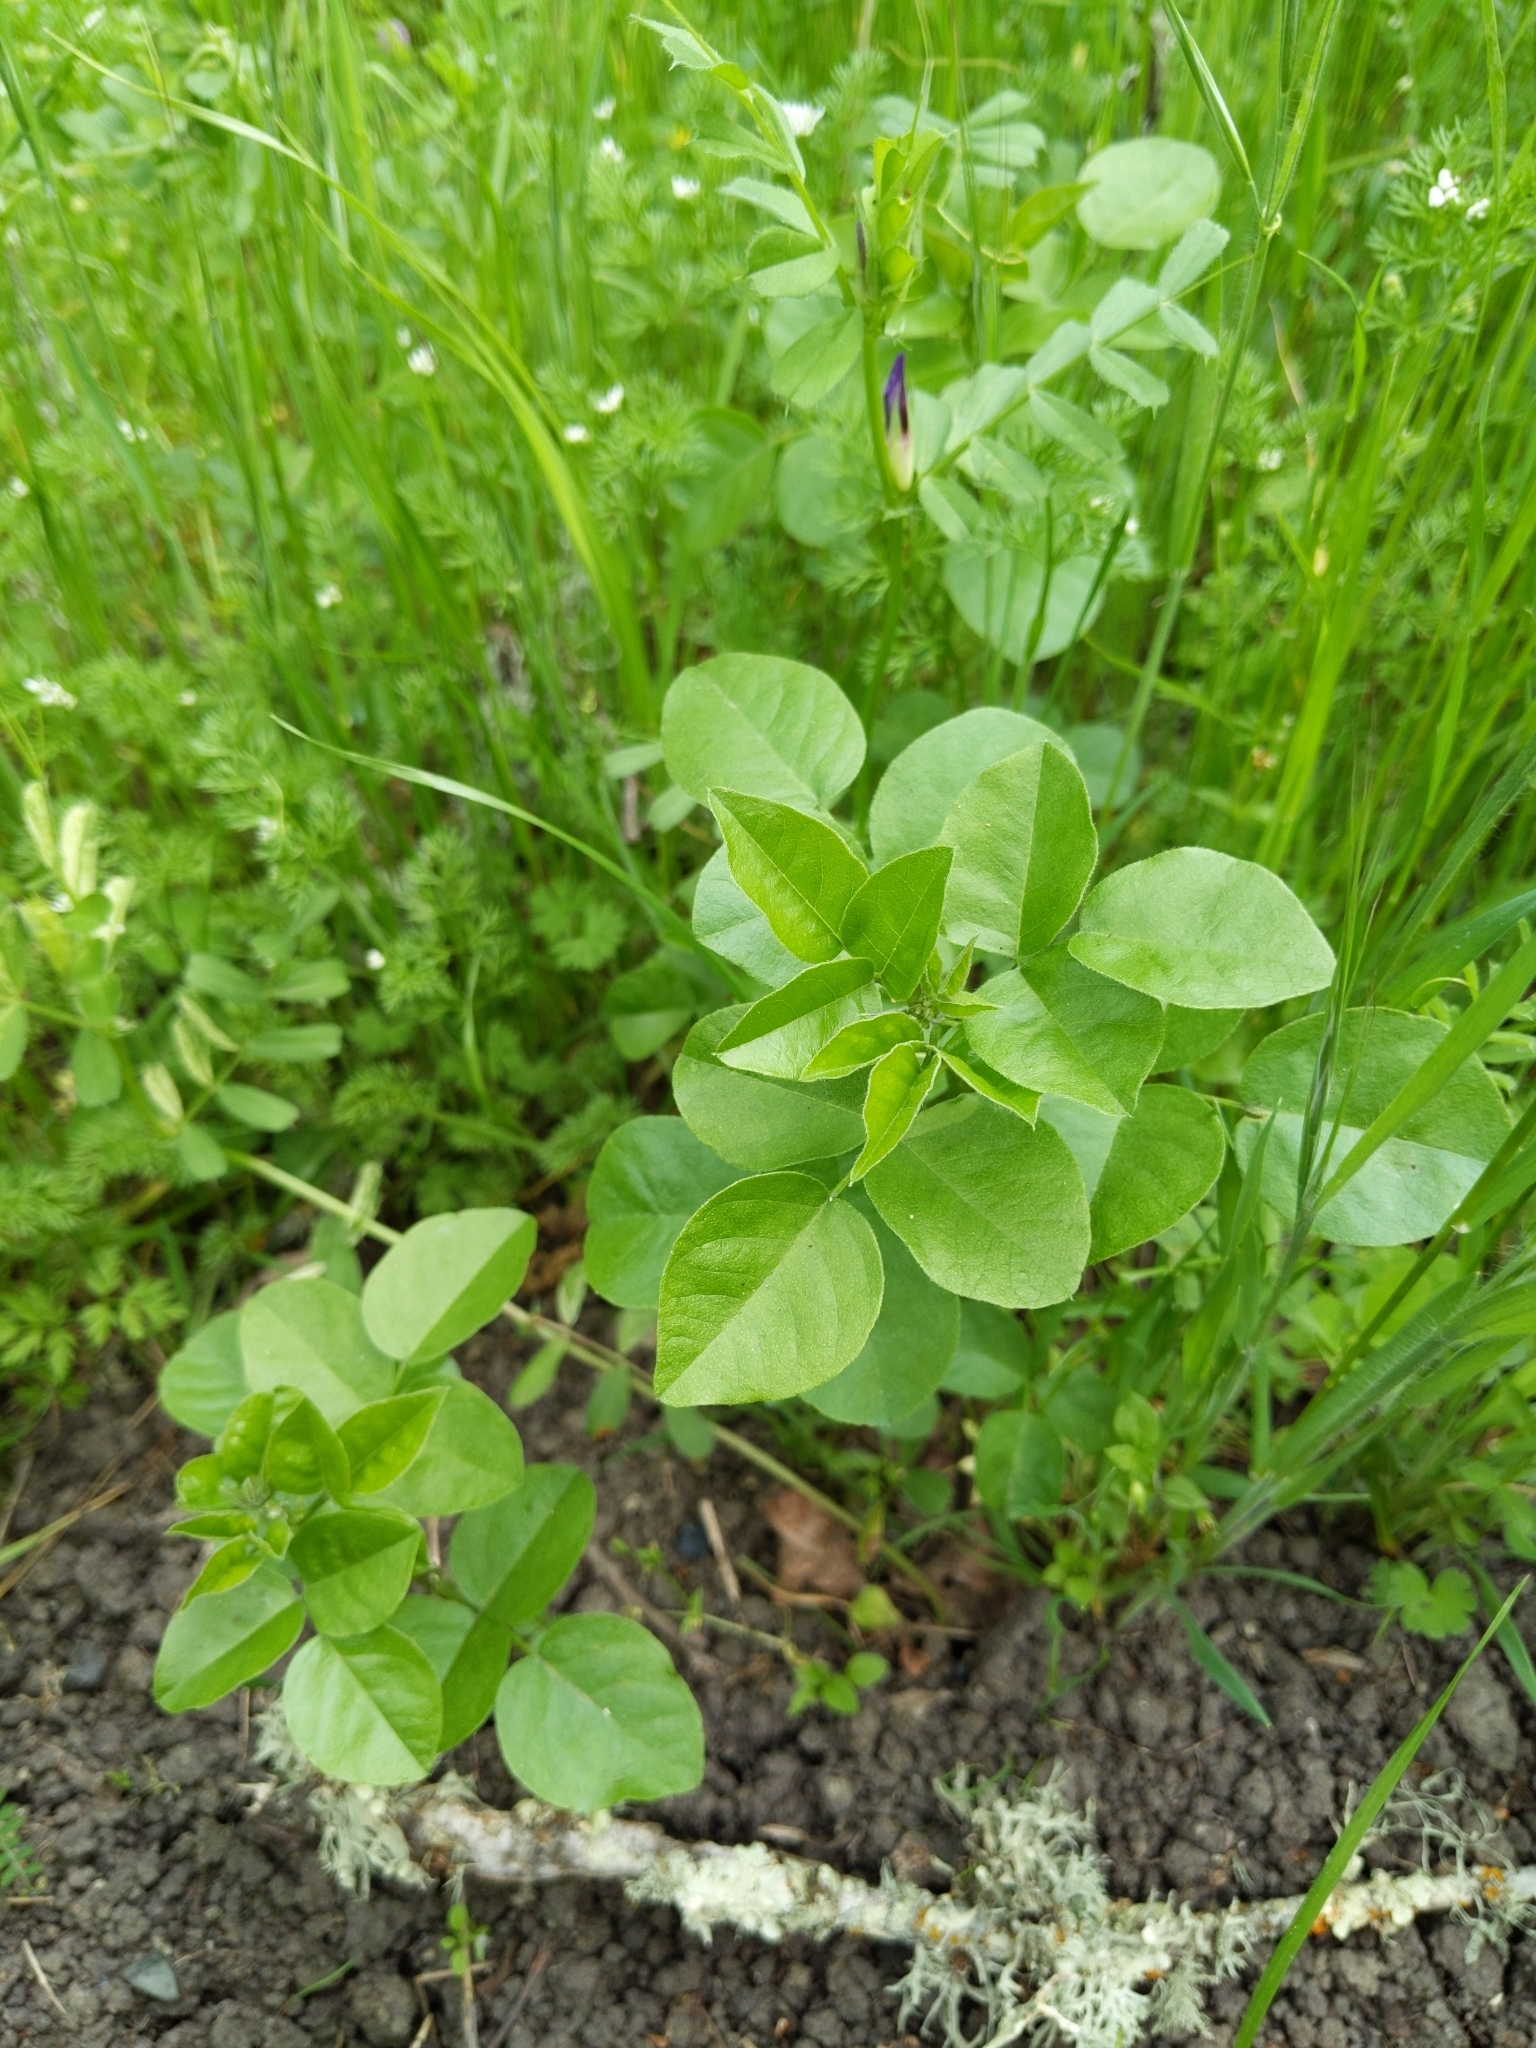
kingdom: Plantae
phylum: Tracheophyta
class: Magnoliopsida
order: Fabales
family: Fabaceae
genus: Rupertia
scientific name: Rupertia physodes
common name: California-tea
